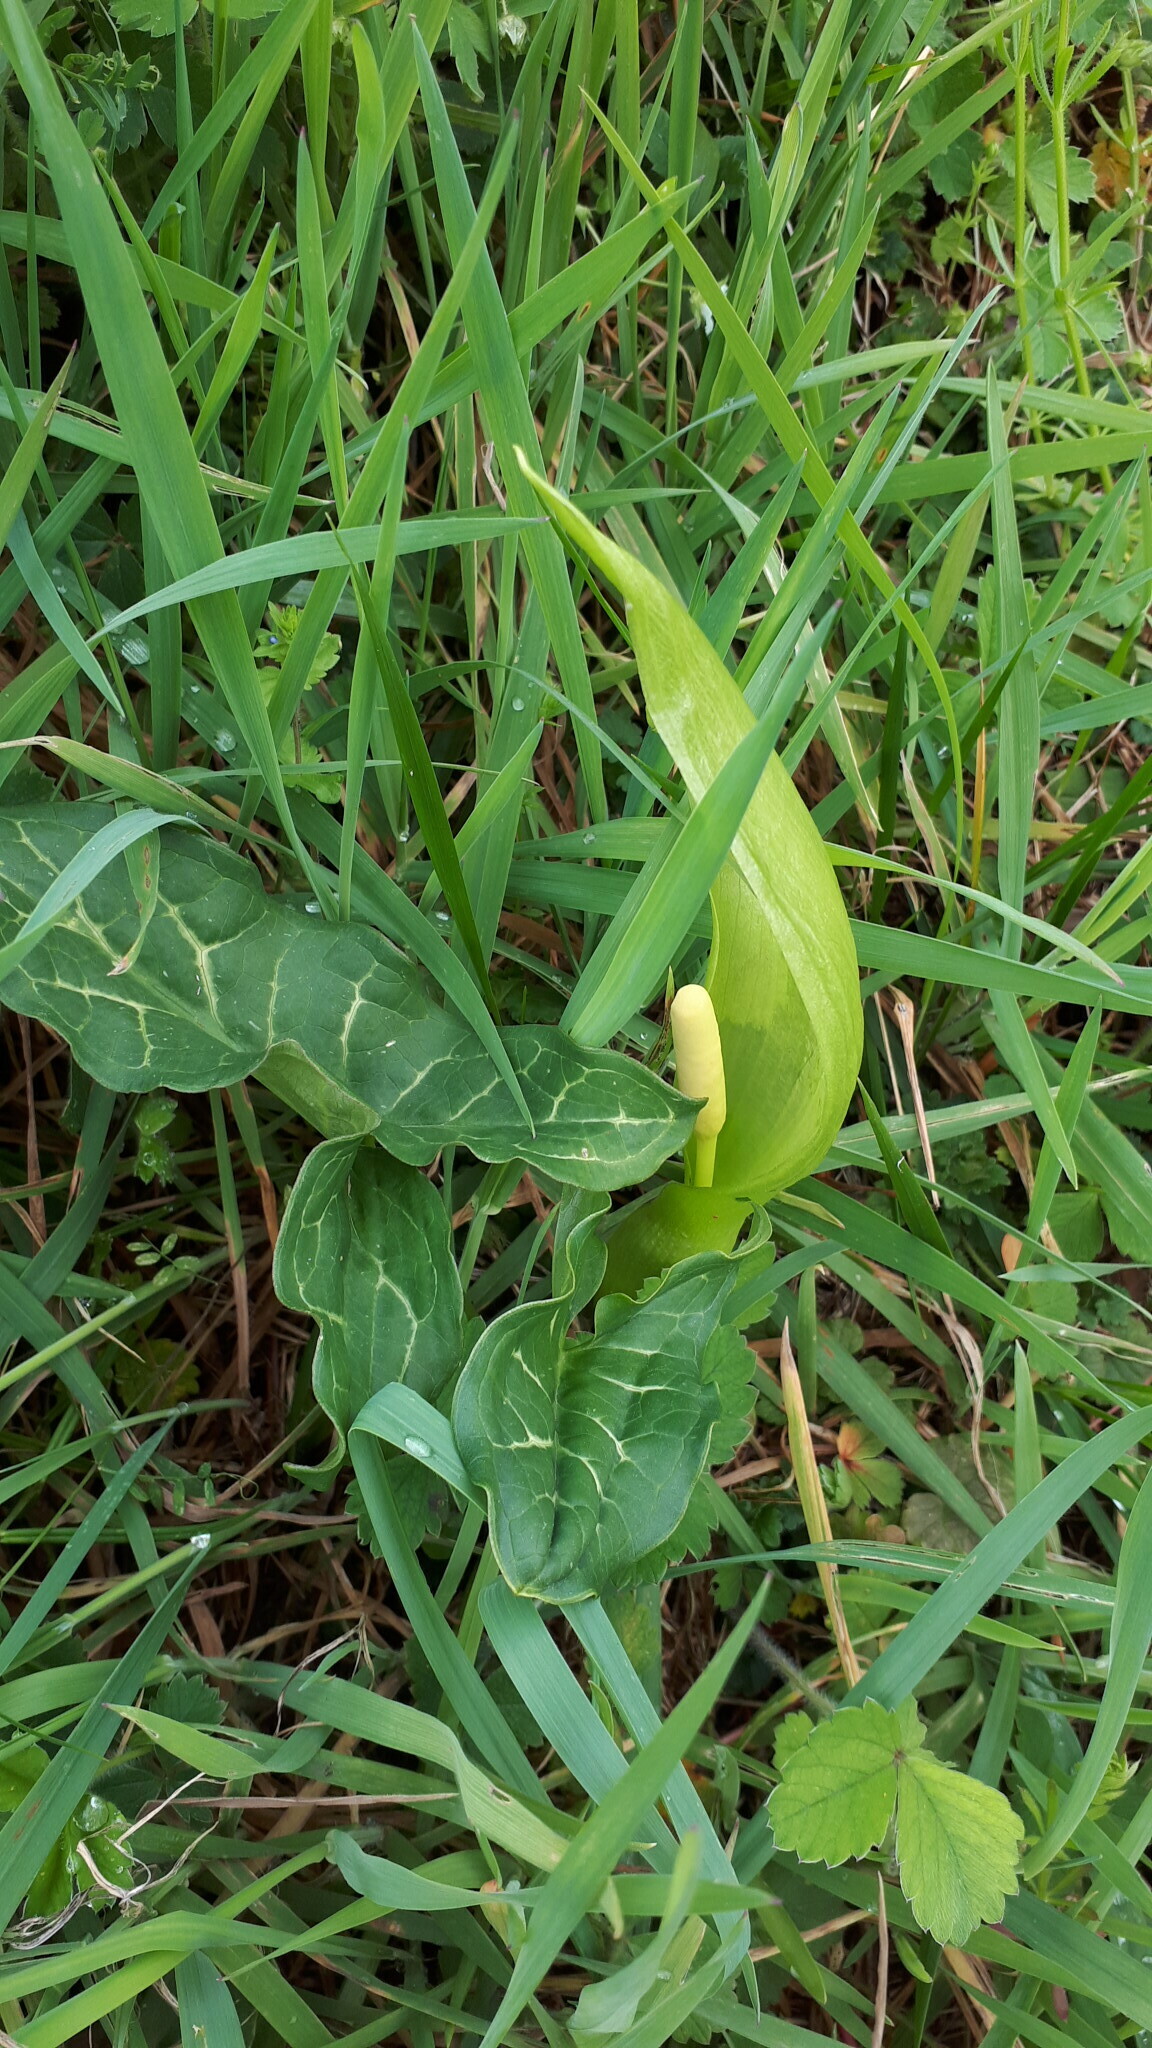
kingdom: Plantae
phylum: Tracheophyta
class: Liliopsida
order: Alismatales
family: Araceae
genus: Arum
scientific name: Arum italicum
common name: Italian lords-and-ladies
